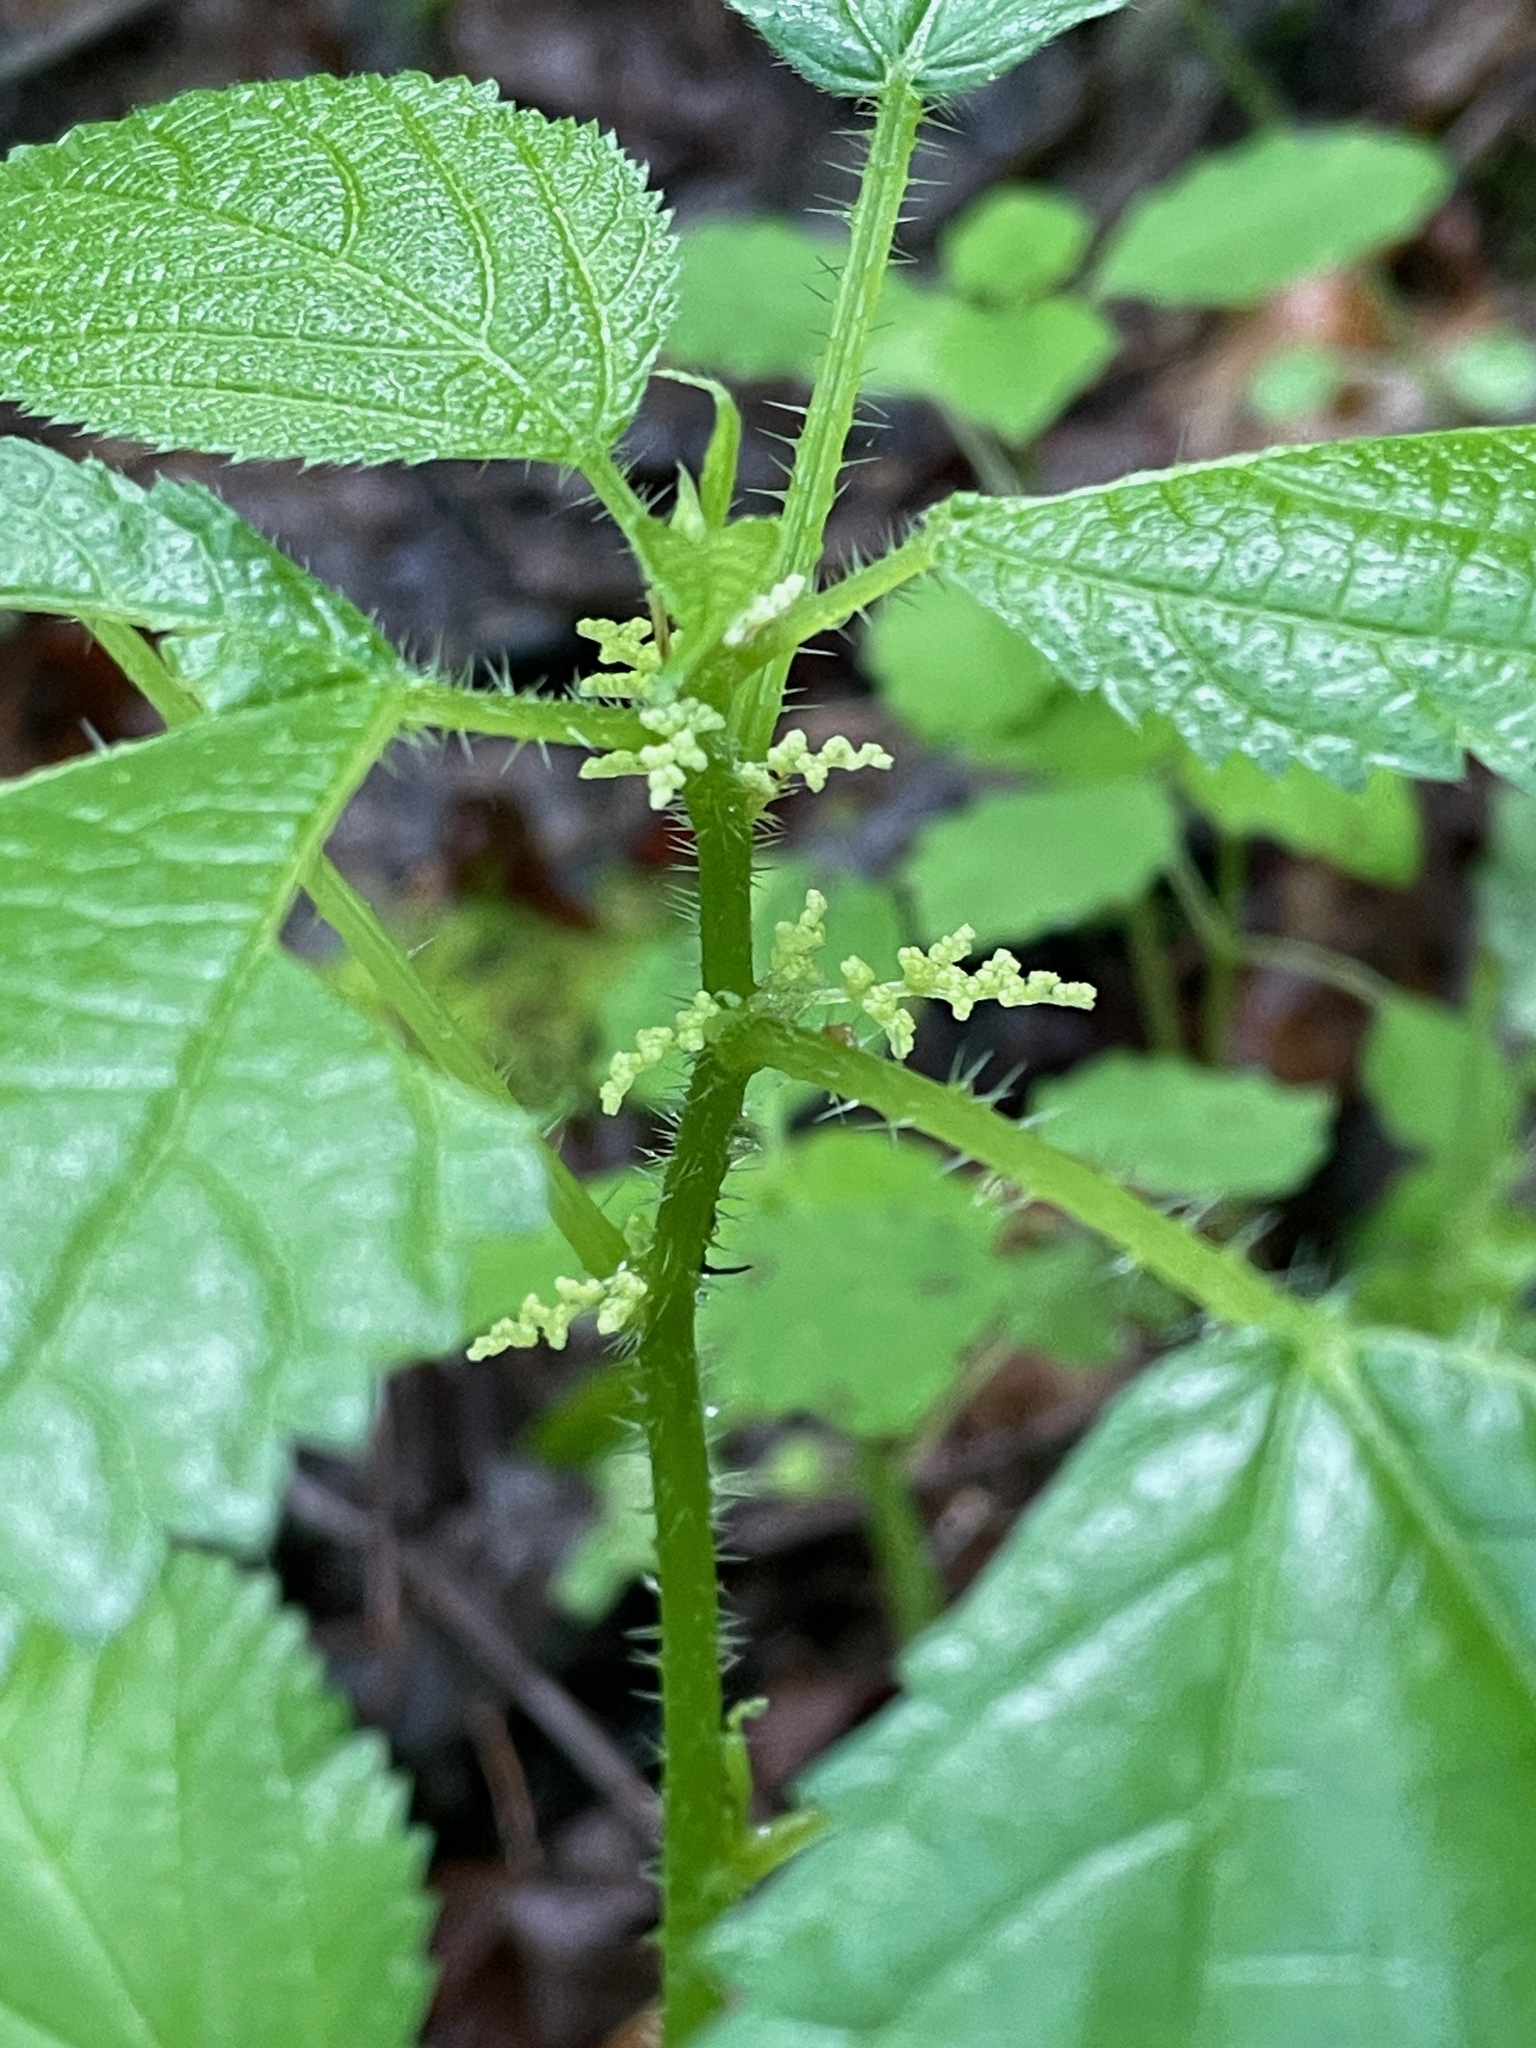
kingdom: Plantae
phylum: Tracheophyta
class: Magnoliopsida
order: Rosales
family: Urticaceae
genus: Laportea
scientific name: Laportea canadensis
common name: Canada nettle
